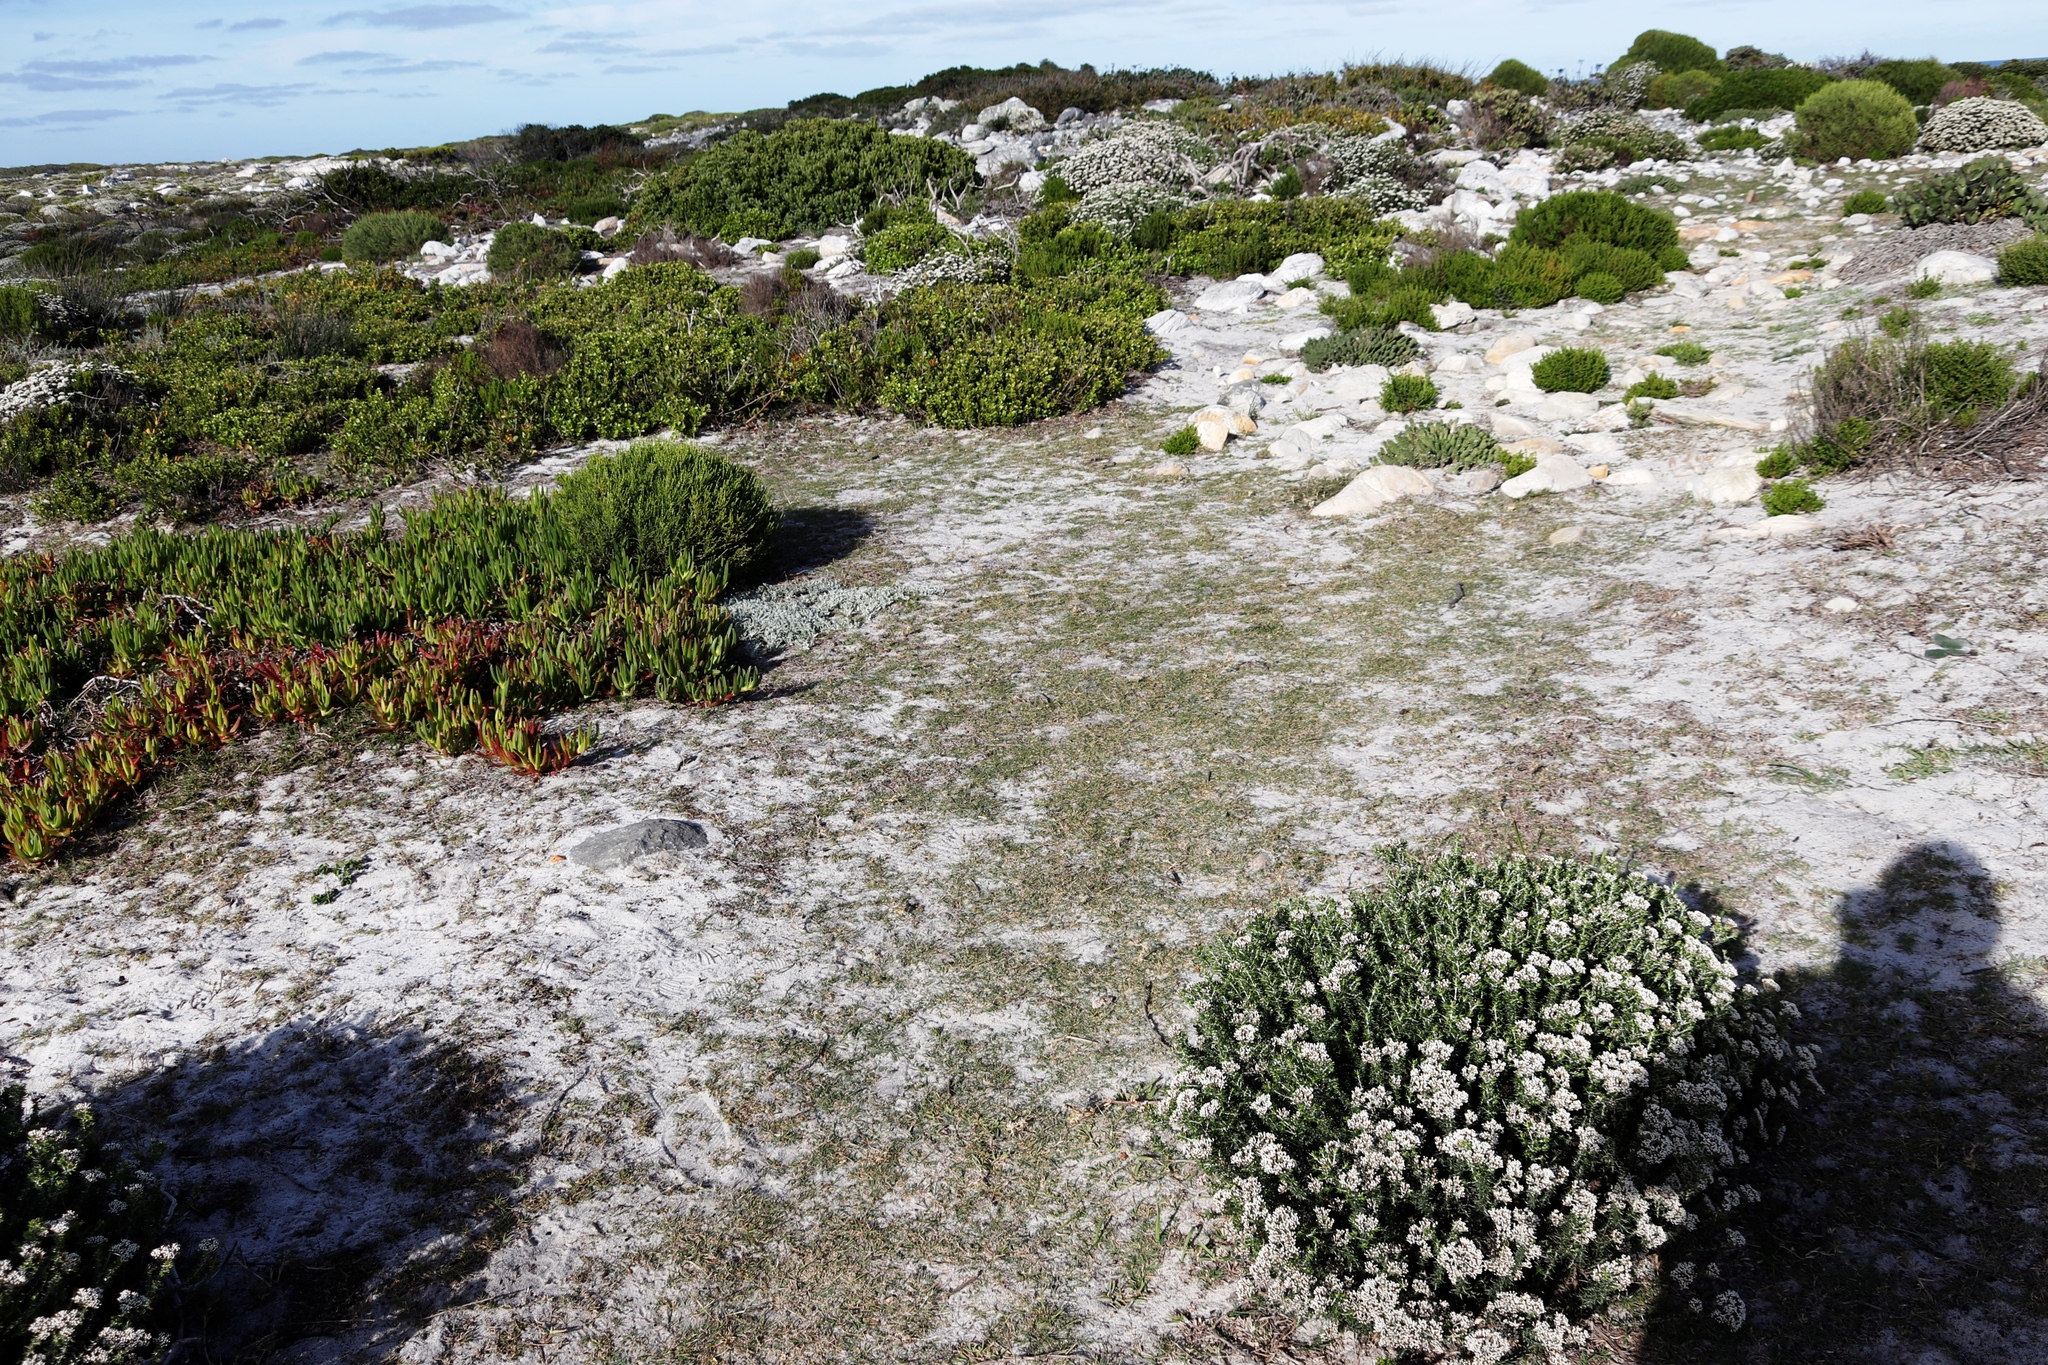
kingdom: Plantae
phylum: Tracheophyta
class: Liliopsida
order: Poales
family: Poaceae
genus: Stenotaphrum
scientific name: Stenotaphrum secundatum
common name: St. augustine grass
